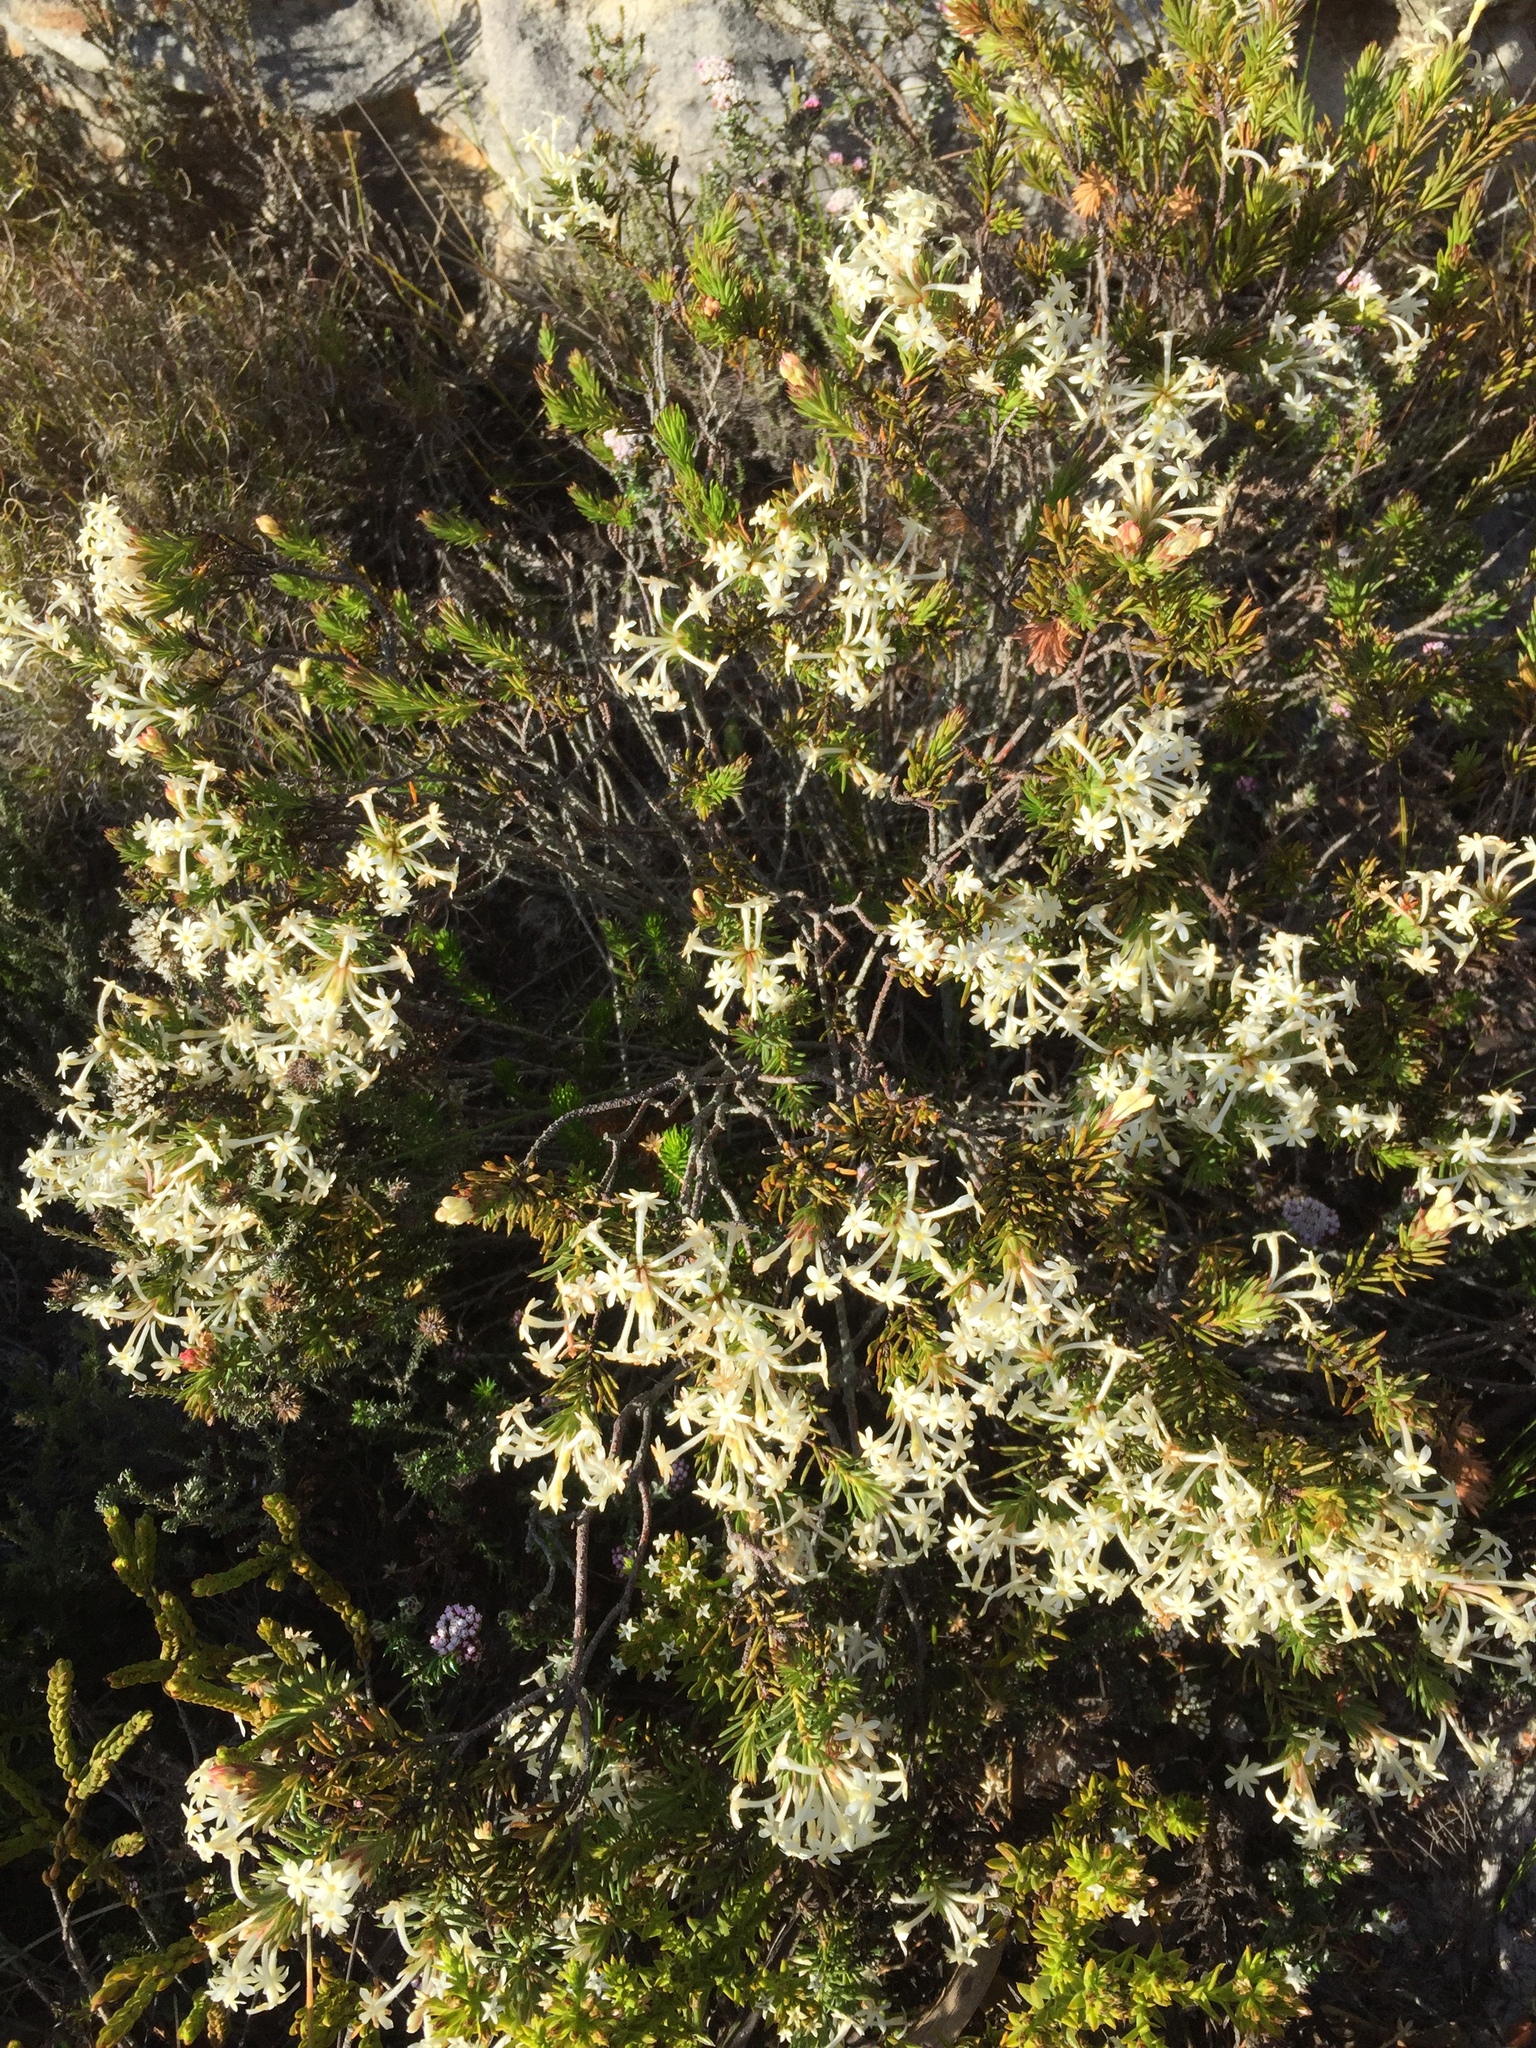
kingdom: Plantae
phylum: Tracheophyta
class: Magnoliopsida
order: Malvales
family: Thymelaeaceae
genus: Gnidia
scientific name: Gnidia pinifolia
